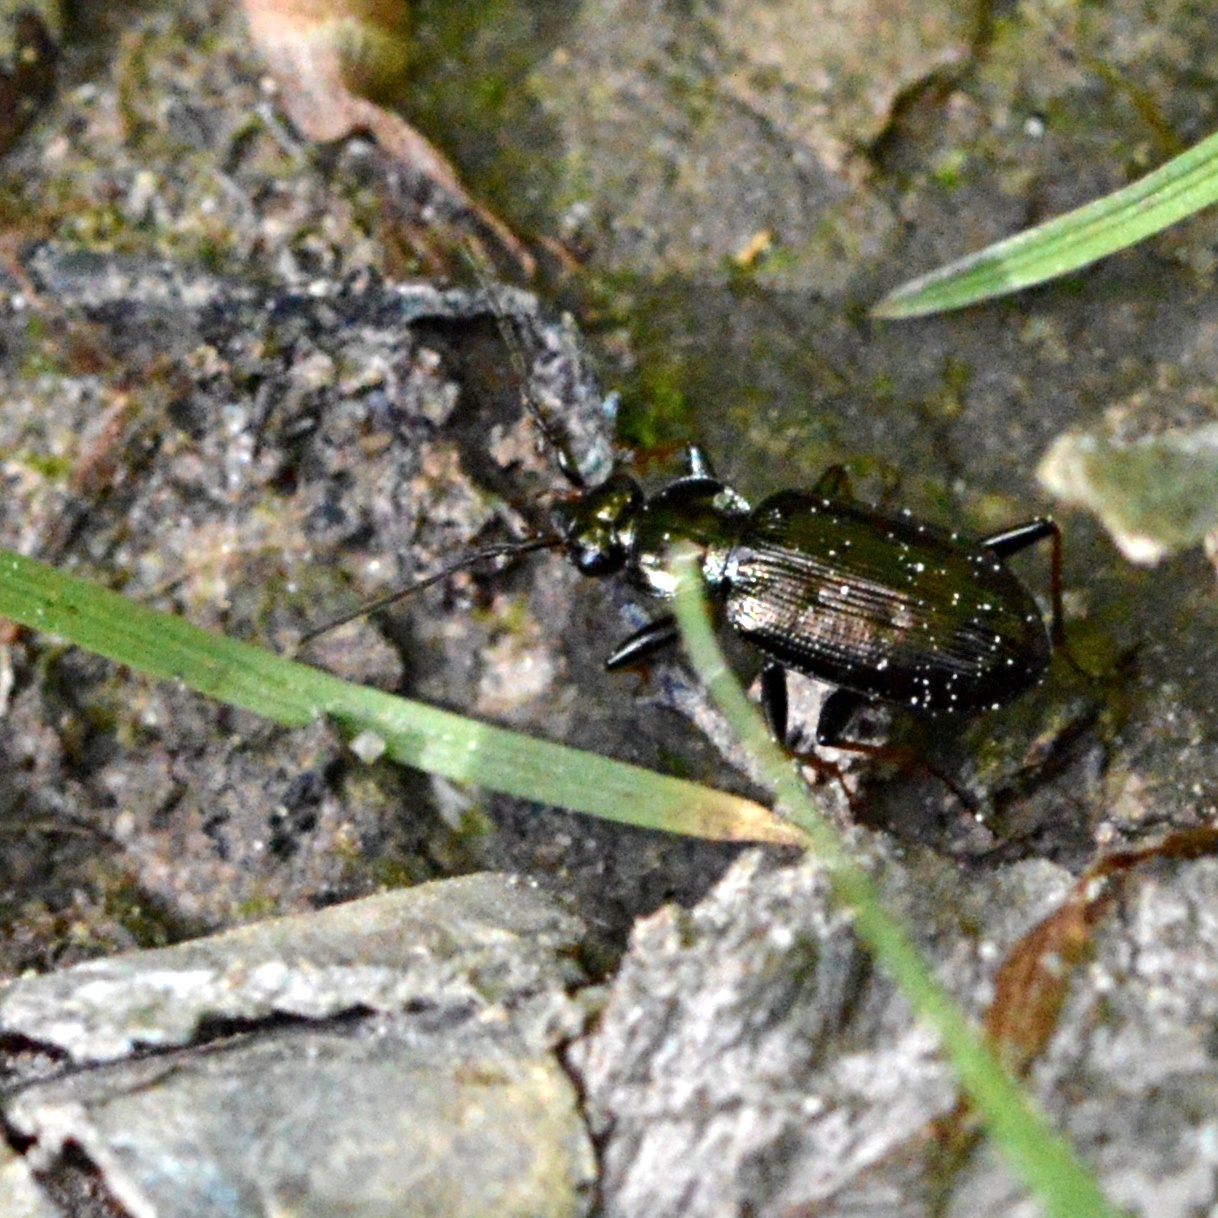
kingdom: Animalia
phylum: Arthropoda
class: Insecta
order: Coleoptera
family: Carabidae
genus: Loricera
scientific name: Loricera pilicornis
